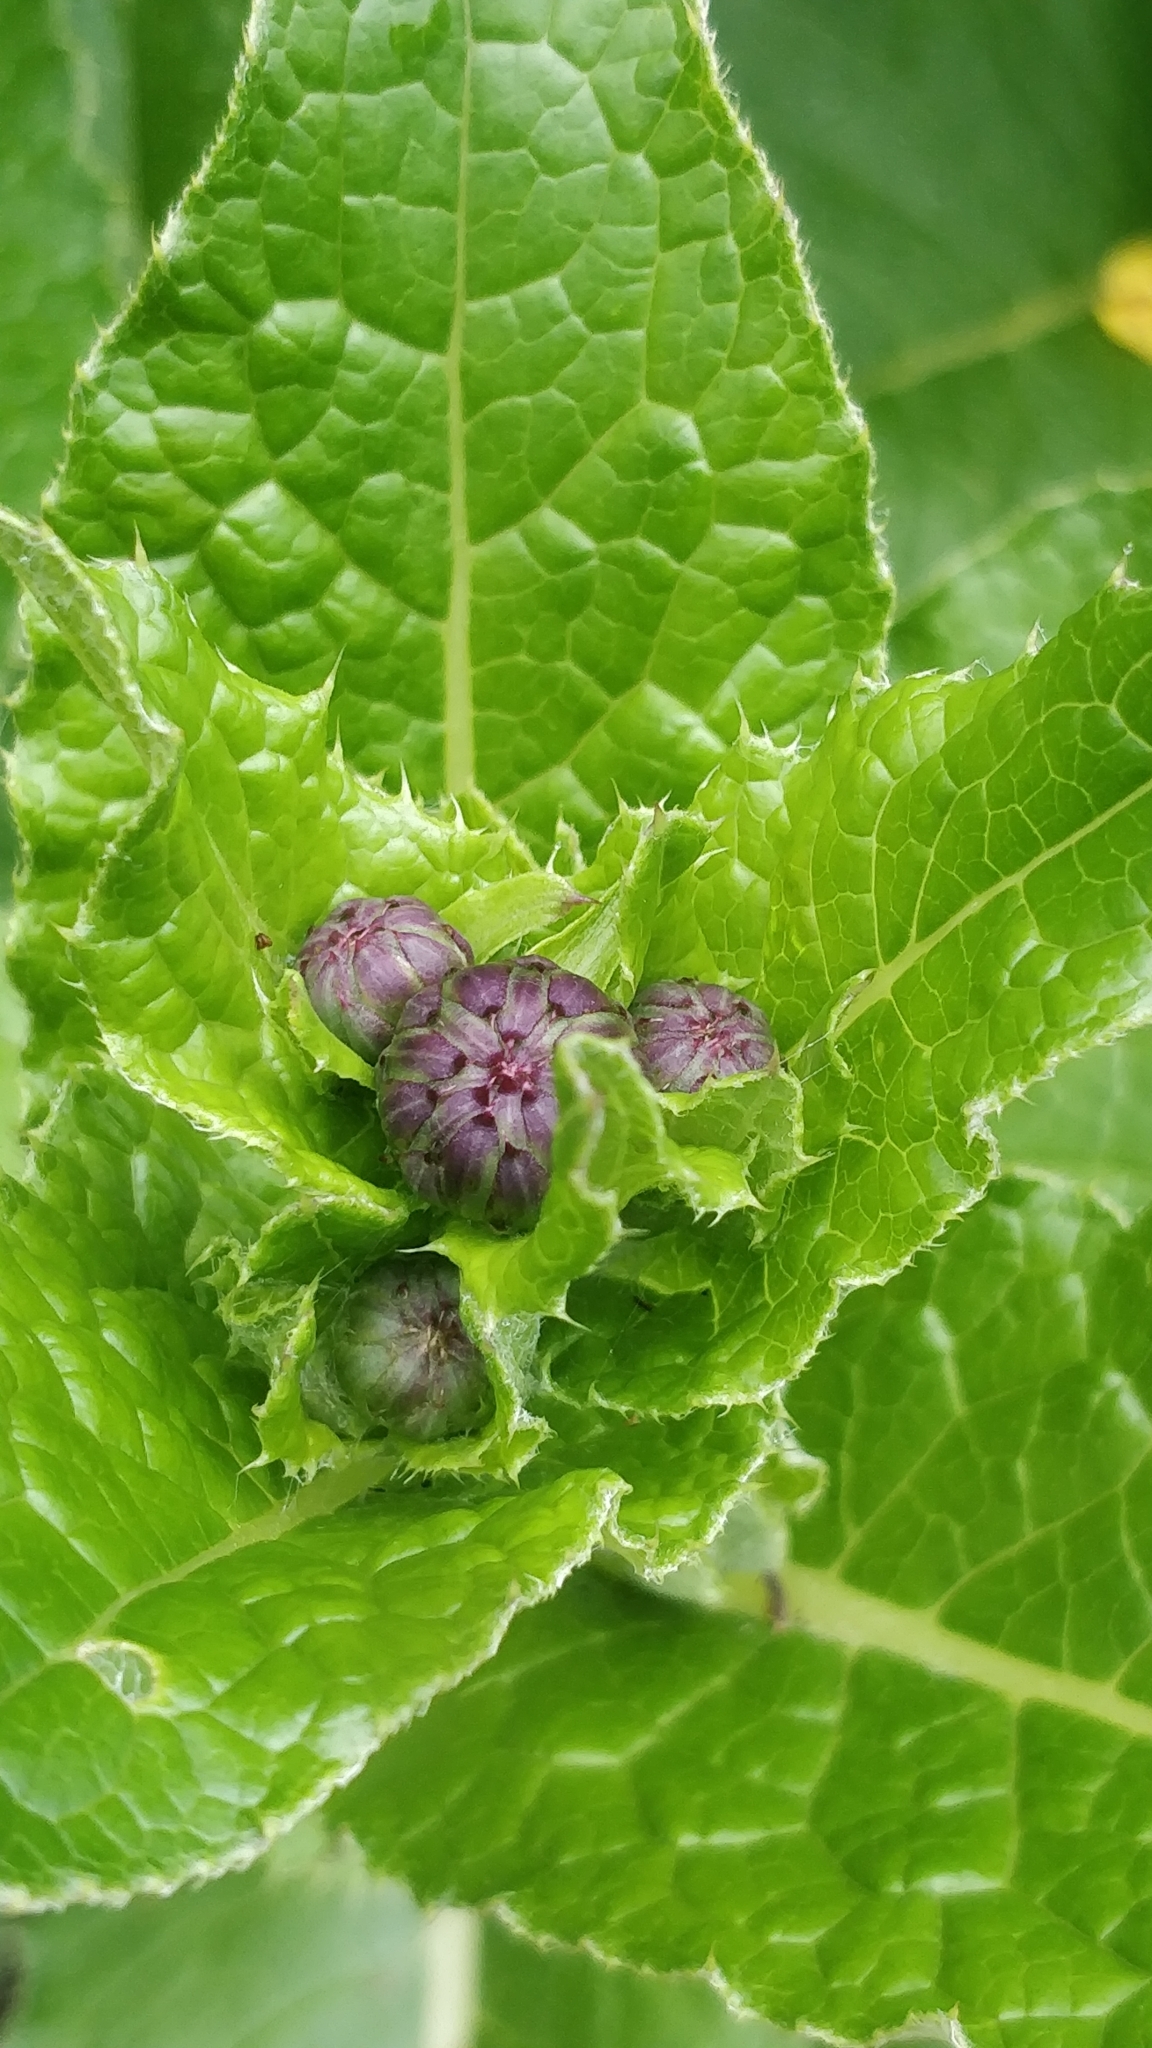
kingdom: Plantae
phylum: Tracheophyta
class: Magnoliopsida
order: Asterales
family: Asteraceae
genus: Cirsium
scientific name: Cirsium latifolium
